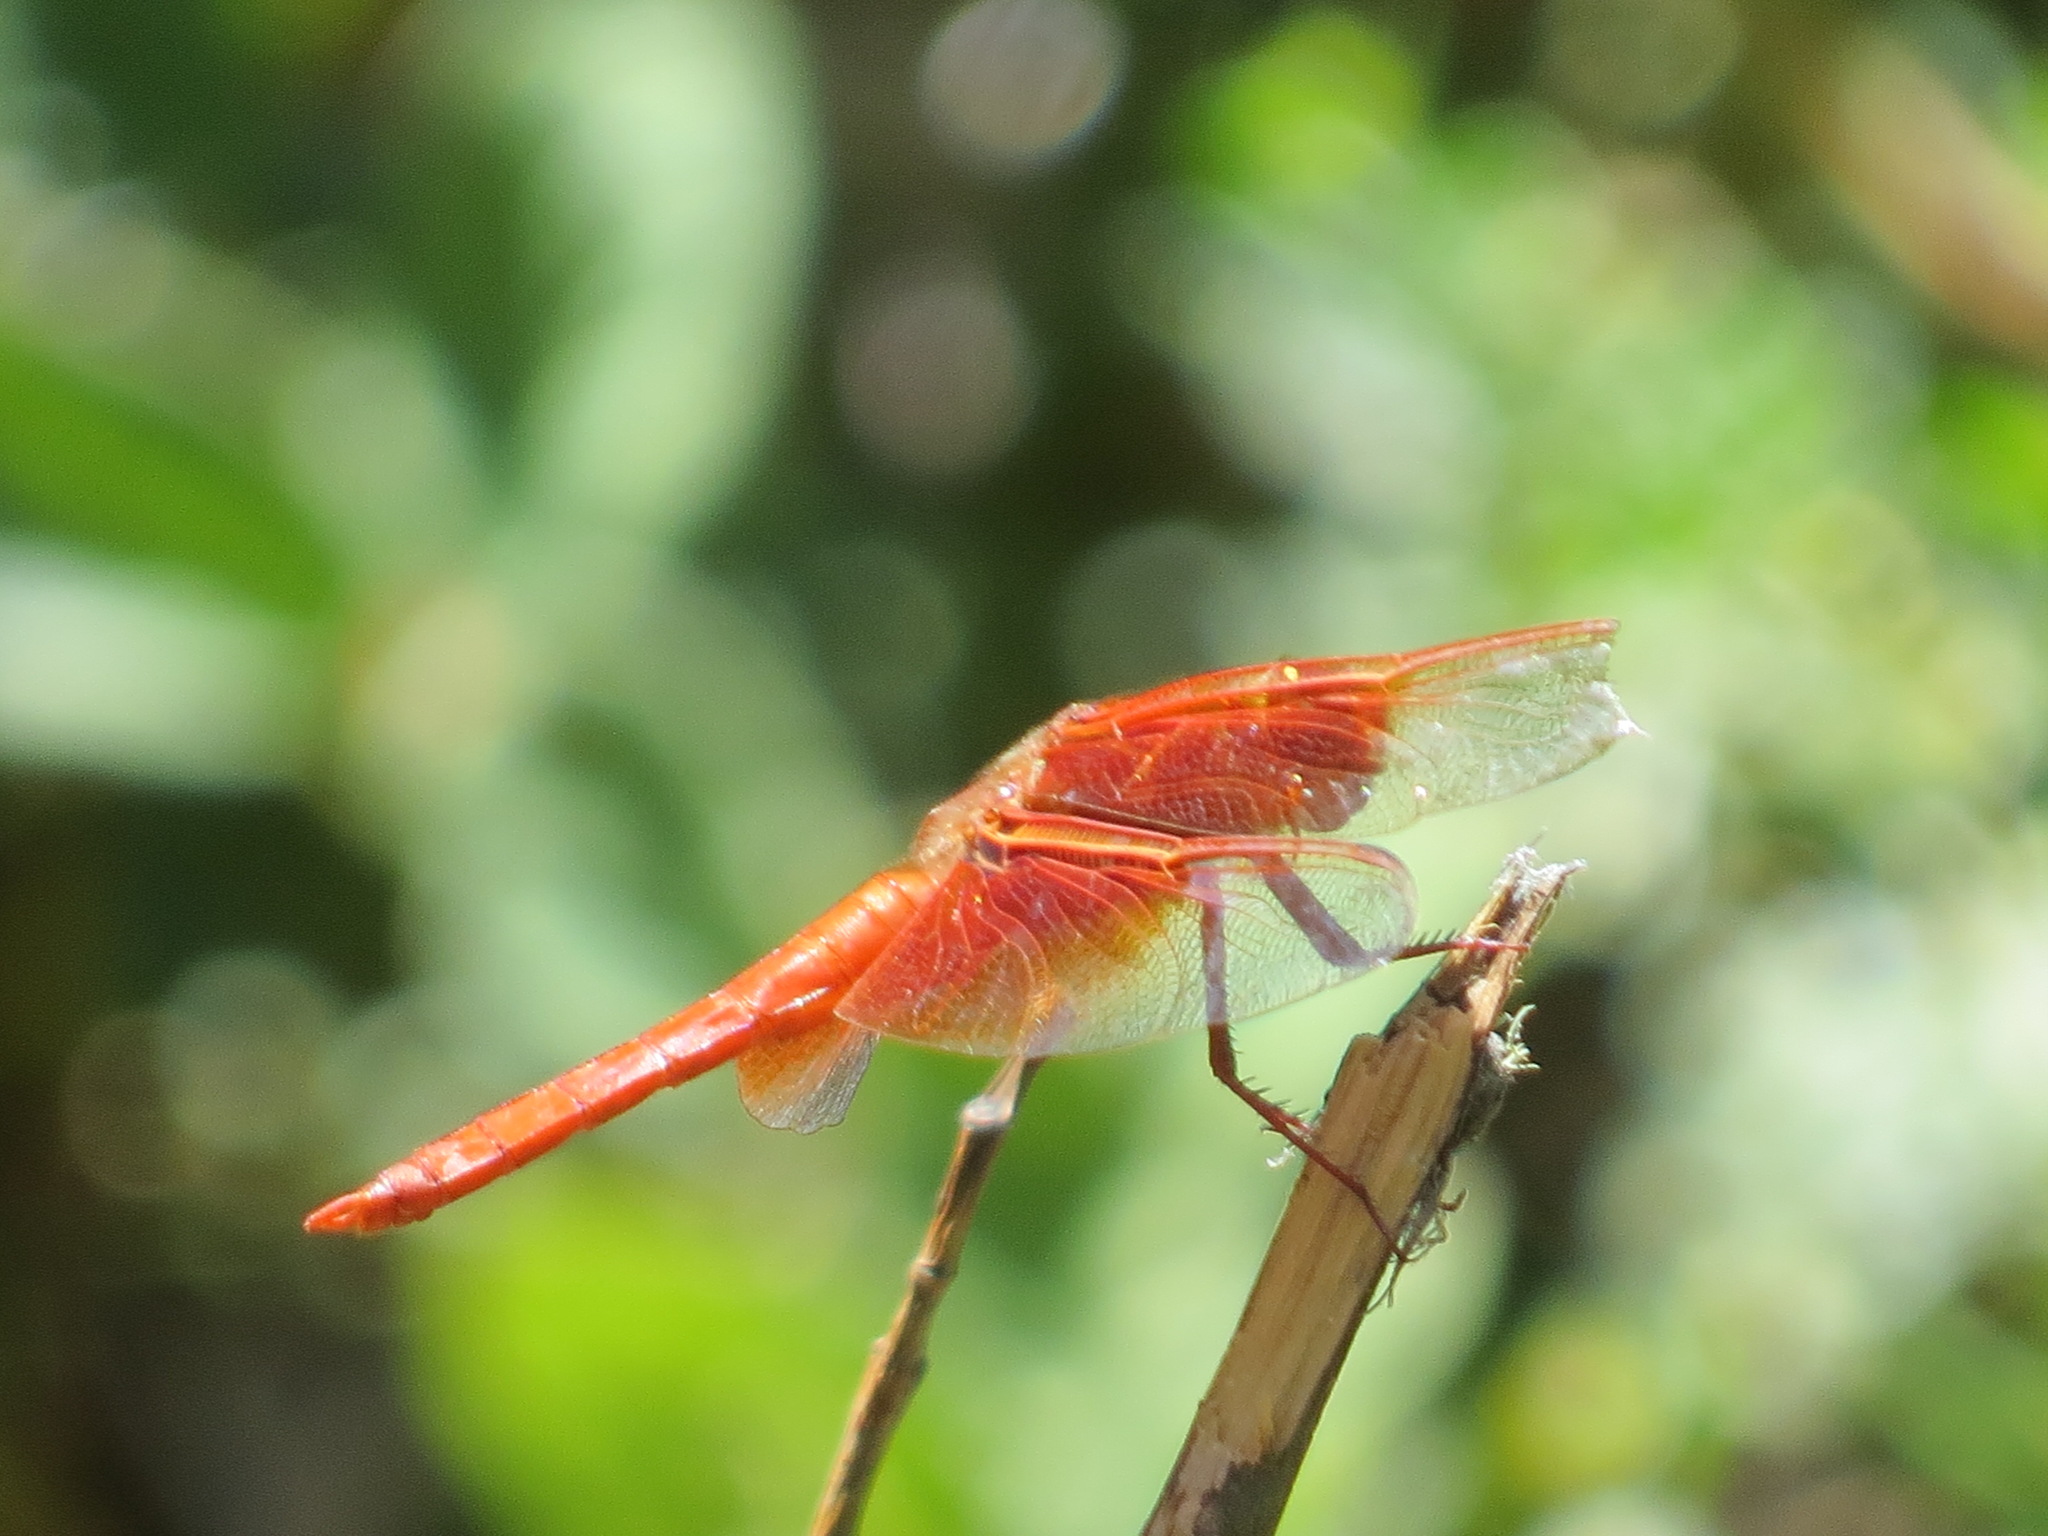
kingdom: Animalia
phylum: Arthropoda
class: Insecta
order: Odonata
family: Libellulidae
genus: Libellula
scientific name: Libellula saturata
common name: Flame skimmer
